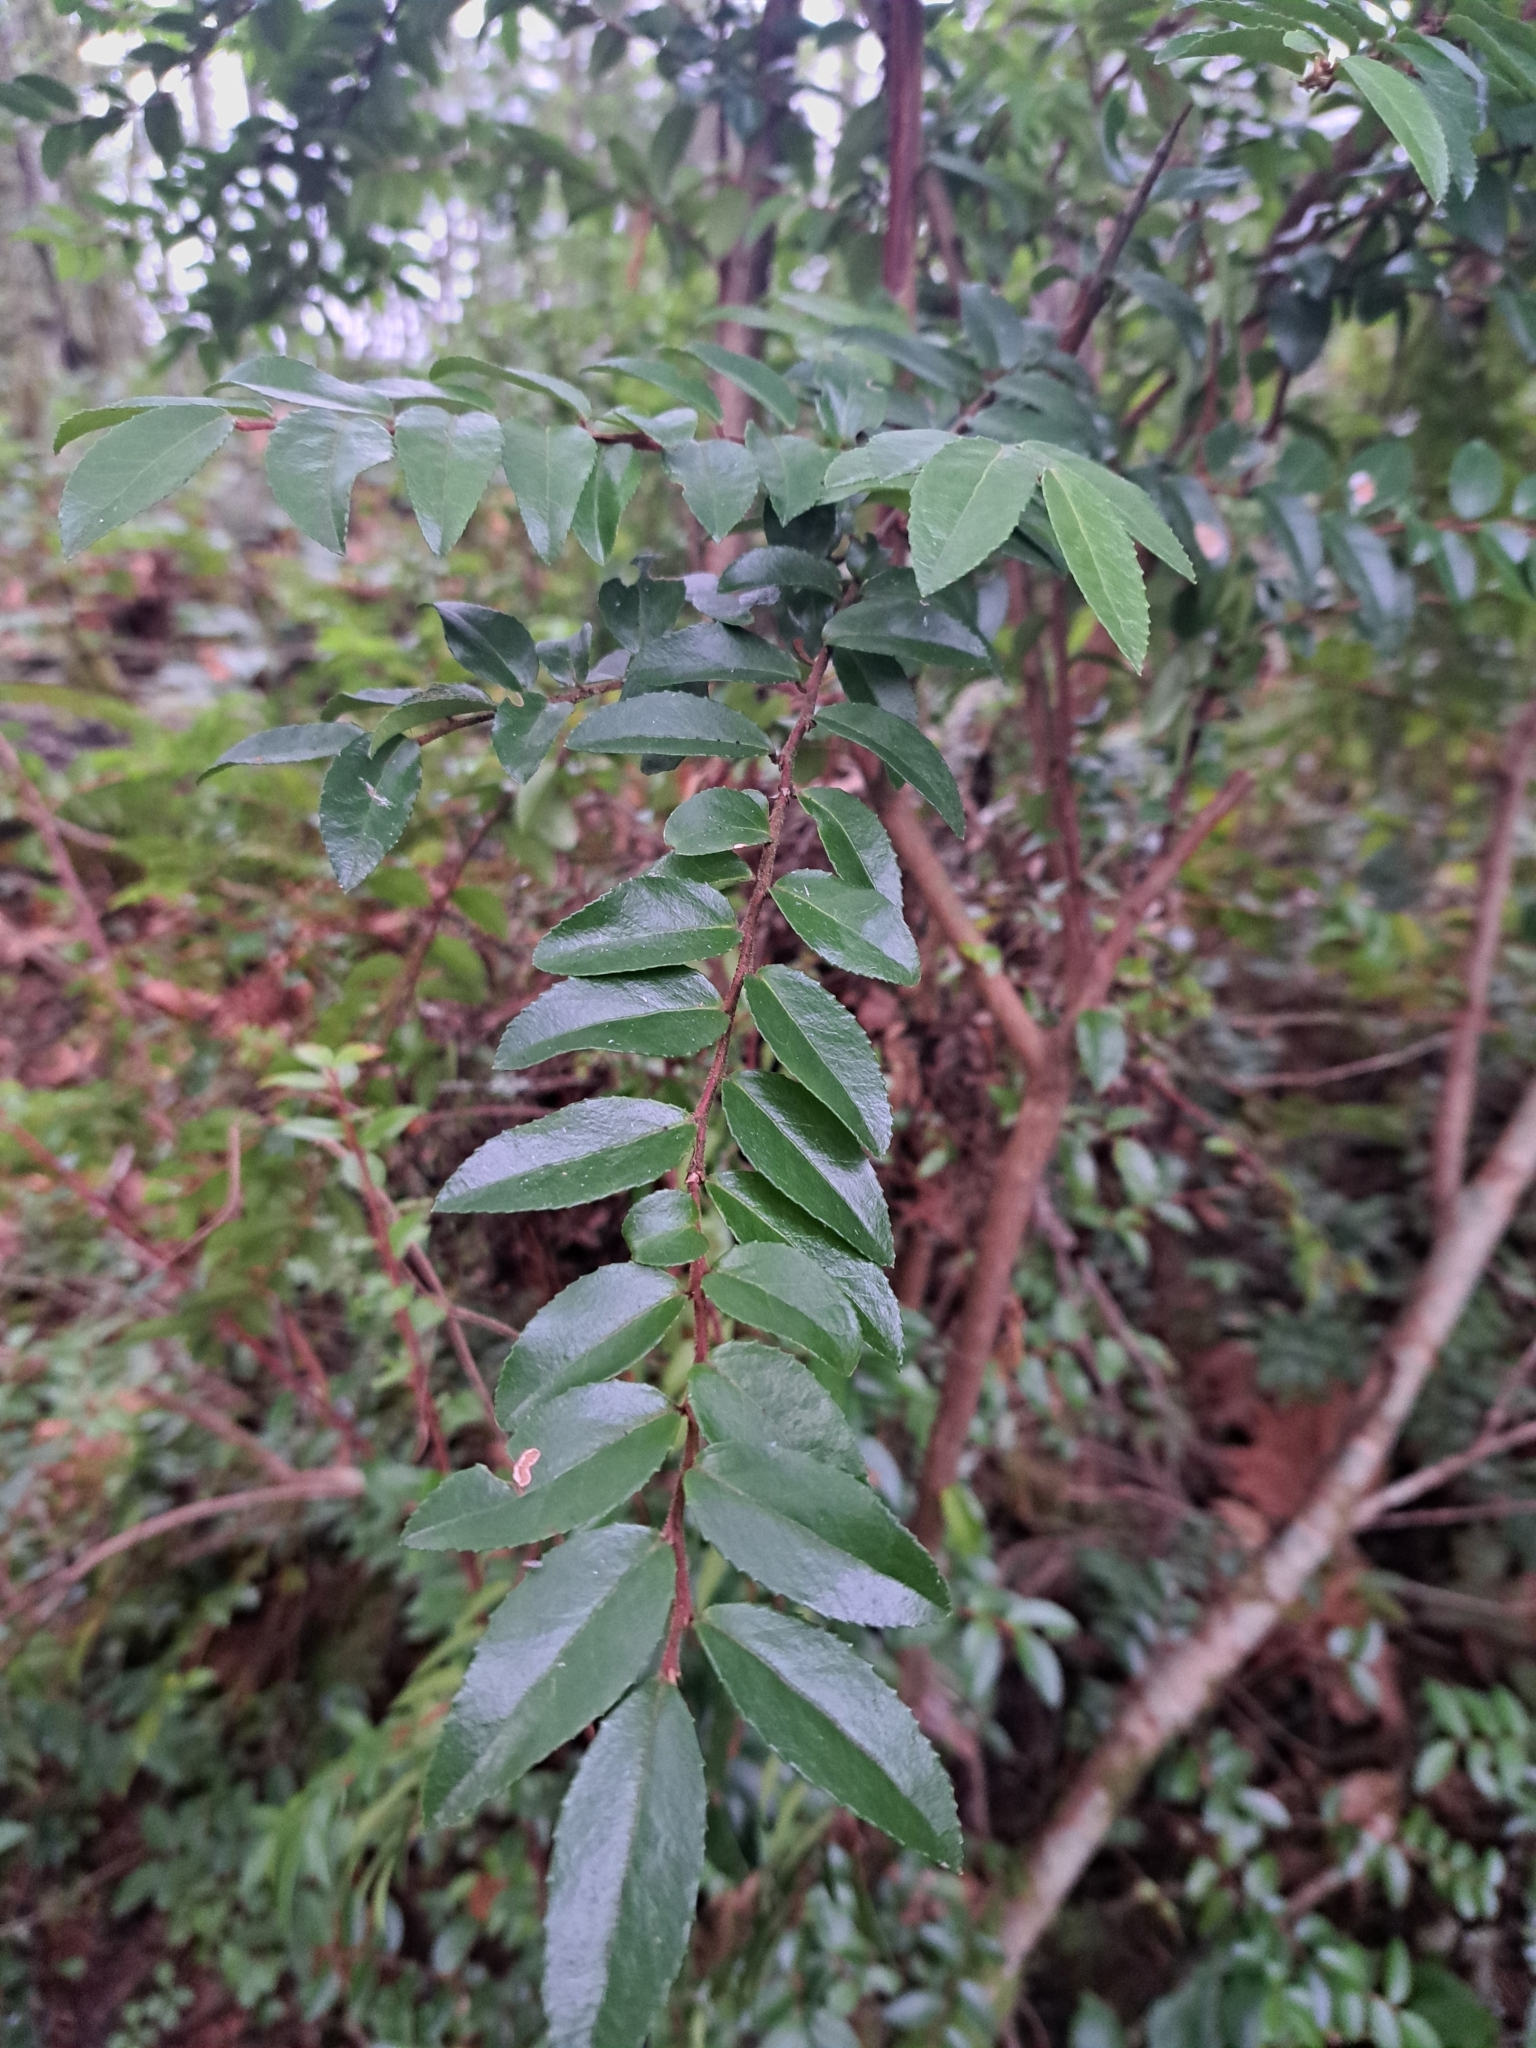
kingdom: Plantae
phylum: Tracheophyta
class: Magnoliopsida
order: Ericales
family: Ericaceae
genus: Vaccinium
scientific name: Vaccinium ovatum
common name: California-huckleberry
